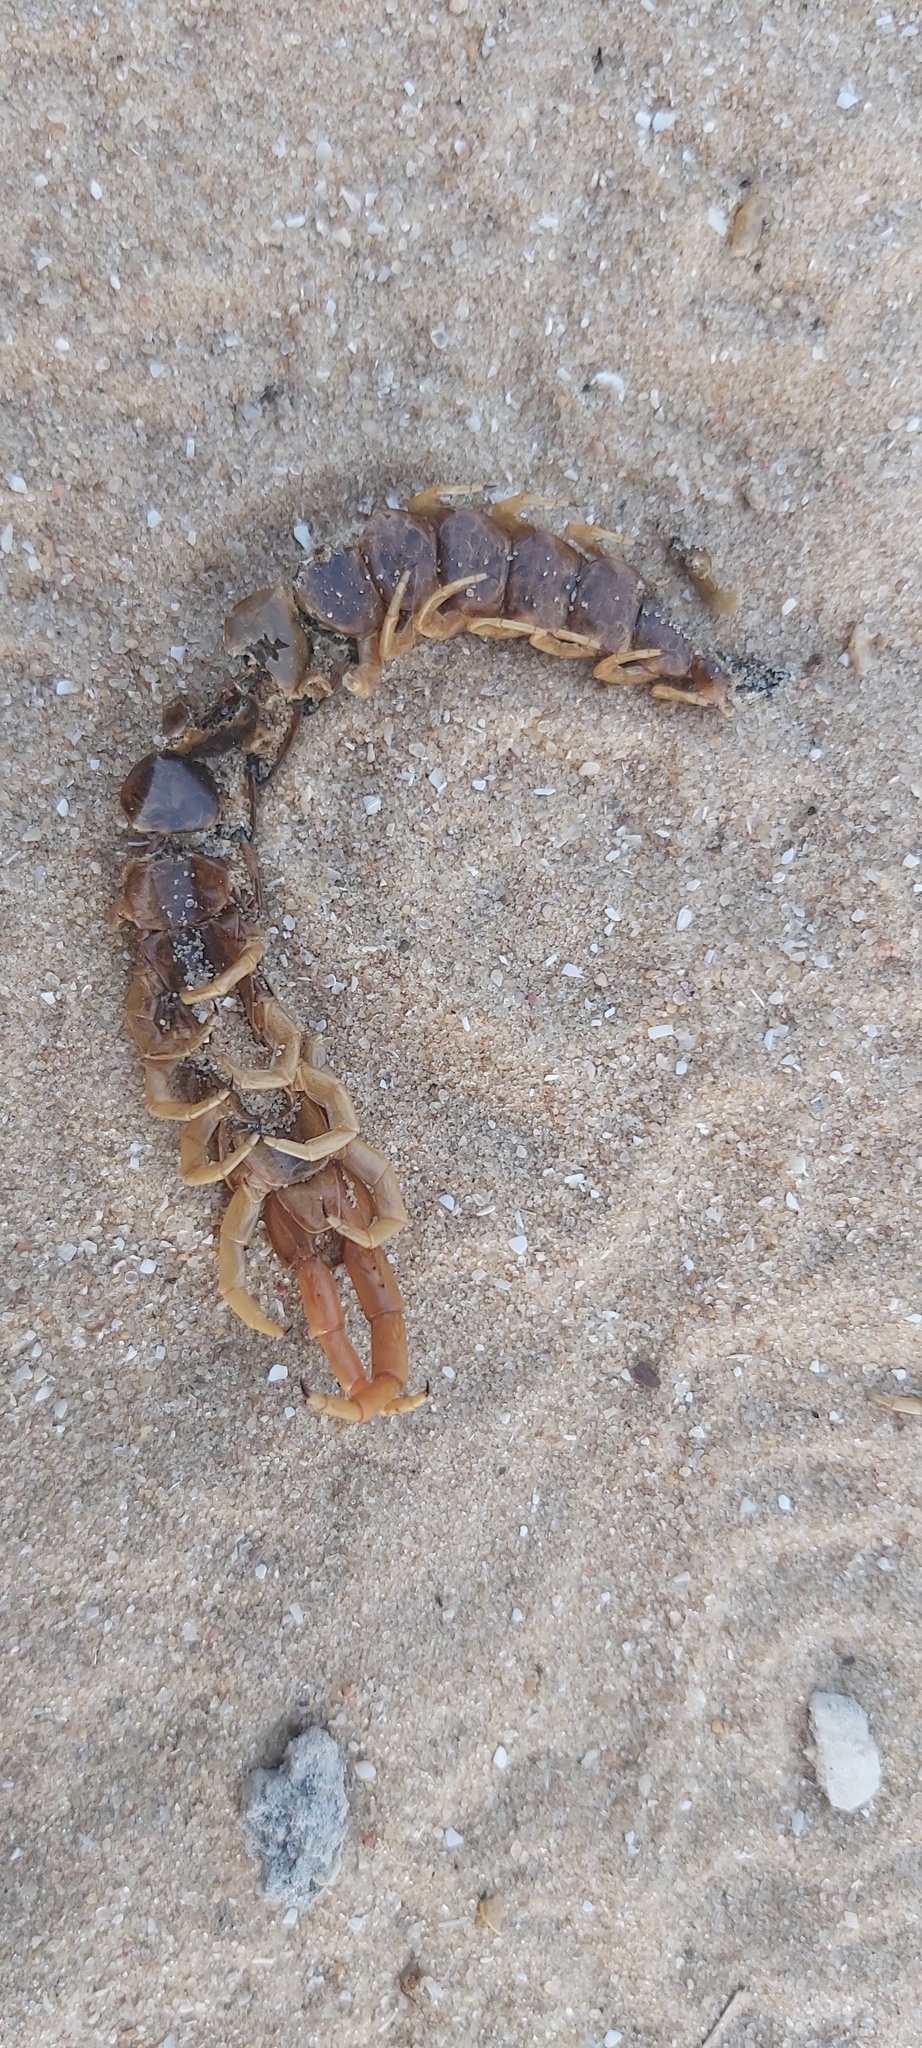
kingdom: Animalia
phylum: Arthropoda
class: Chilopoda
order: Scolopendromorpha
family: Scolopendridae
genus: Scolopendra
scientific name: Scolopendra cingulata
